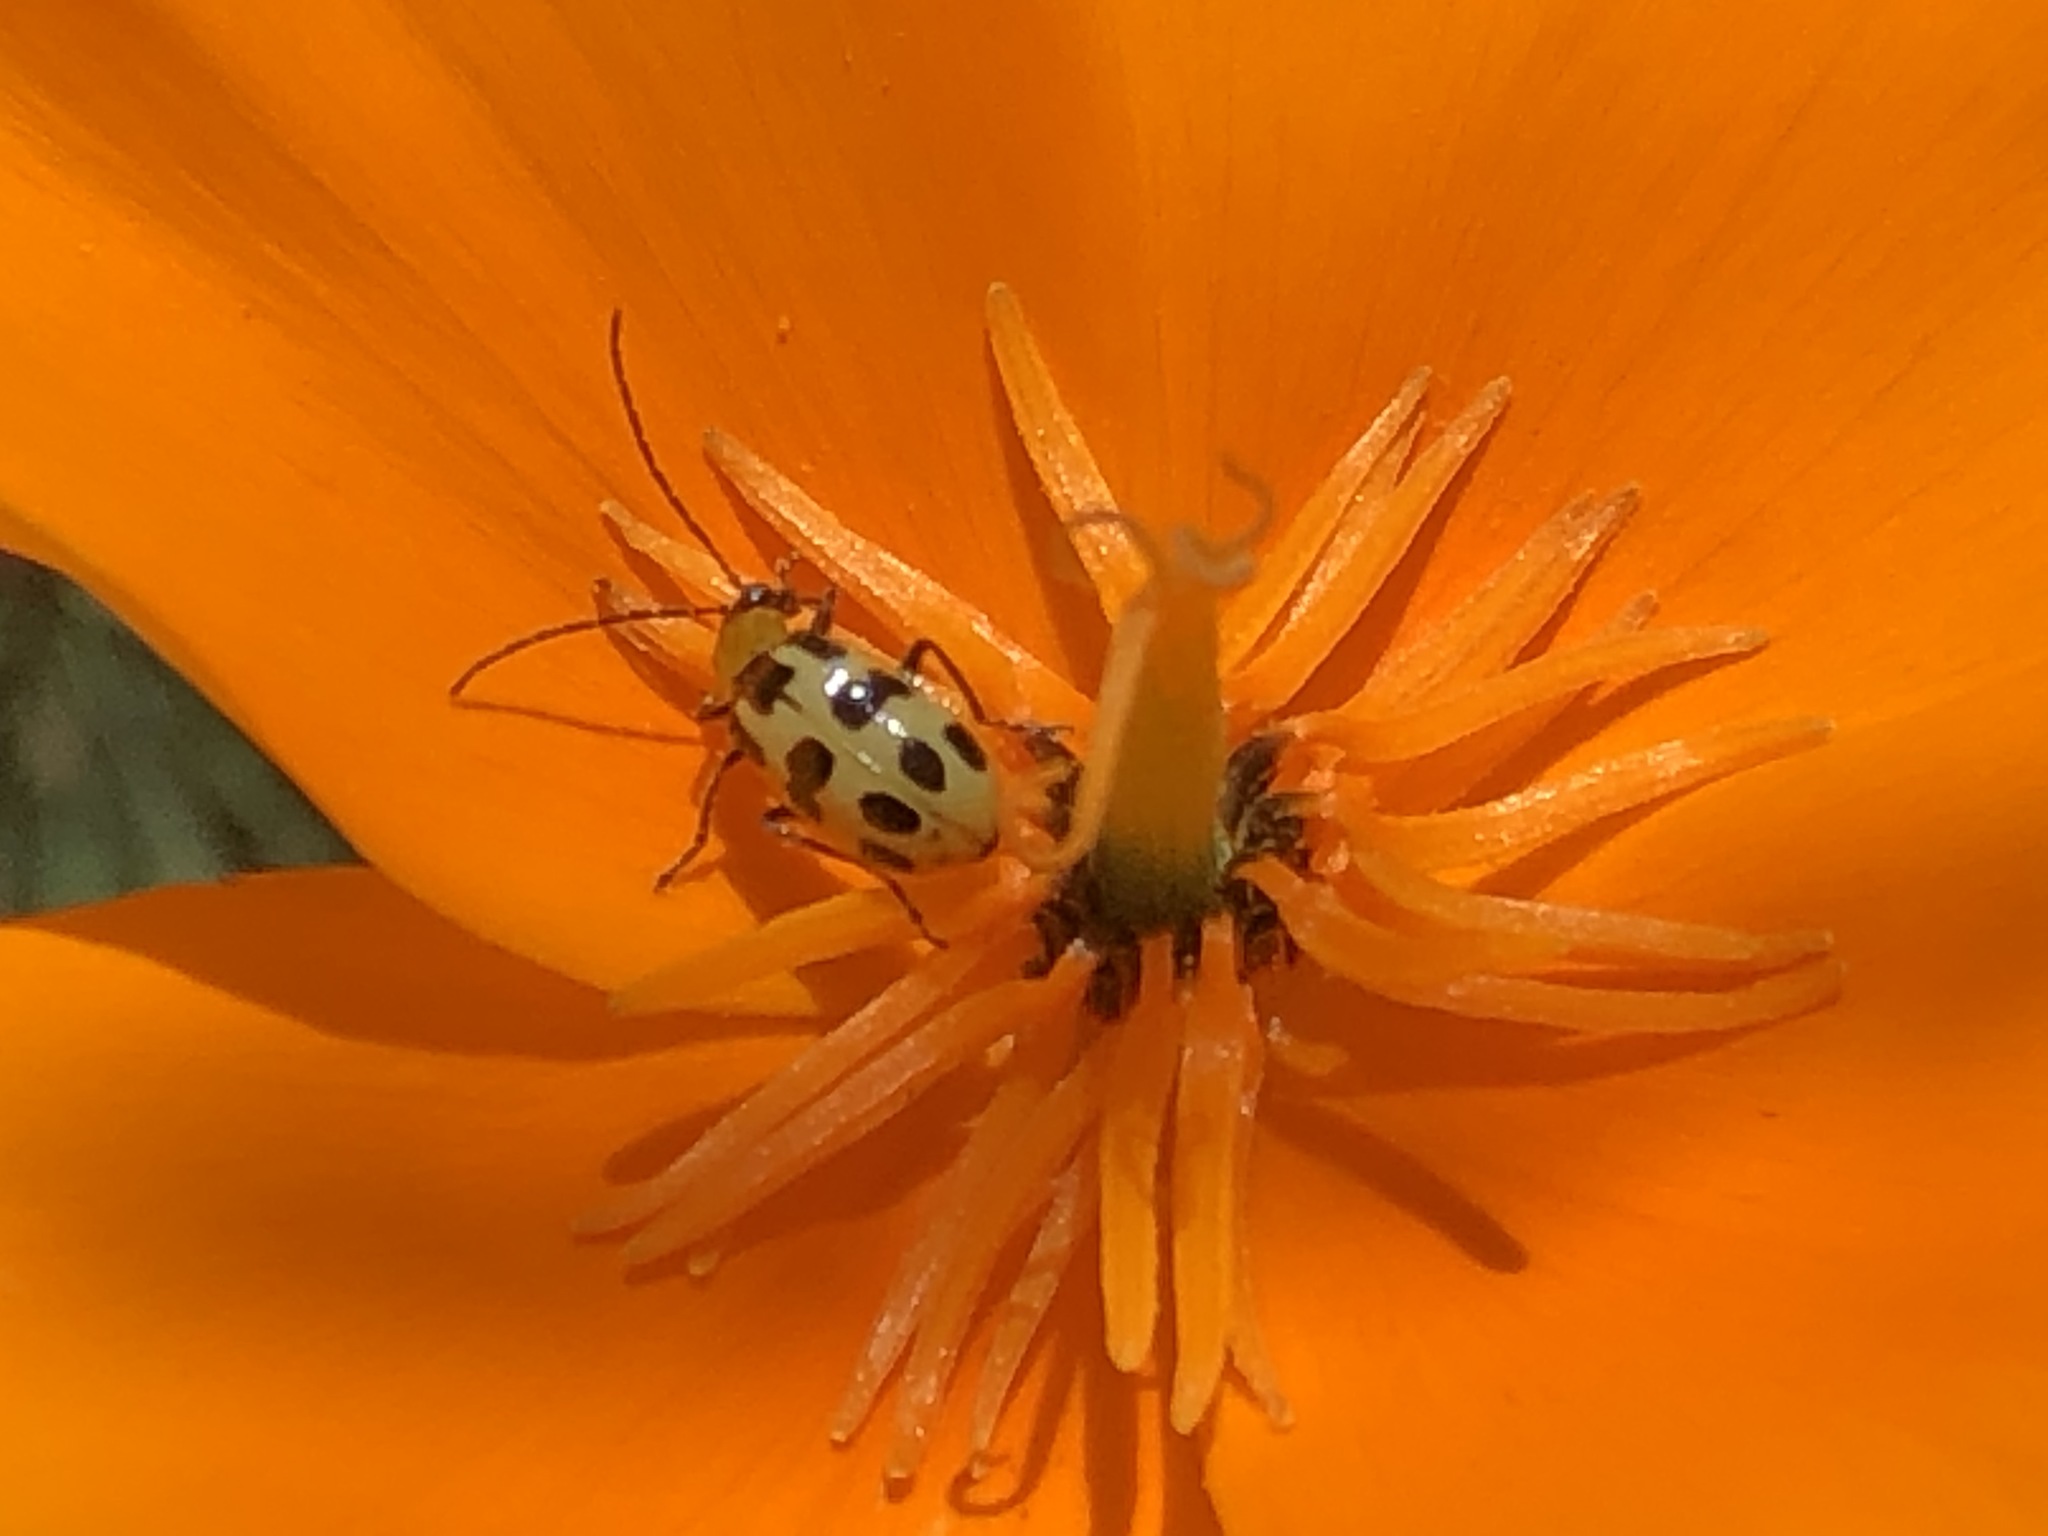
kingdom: Animalia
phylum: Arthropoda
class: Insecta
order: Coleoptera
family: Chrysomelidae
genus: Diabrotica
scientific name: Diabrotica undecimpunctata
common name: Spotted cucumber beetle
